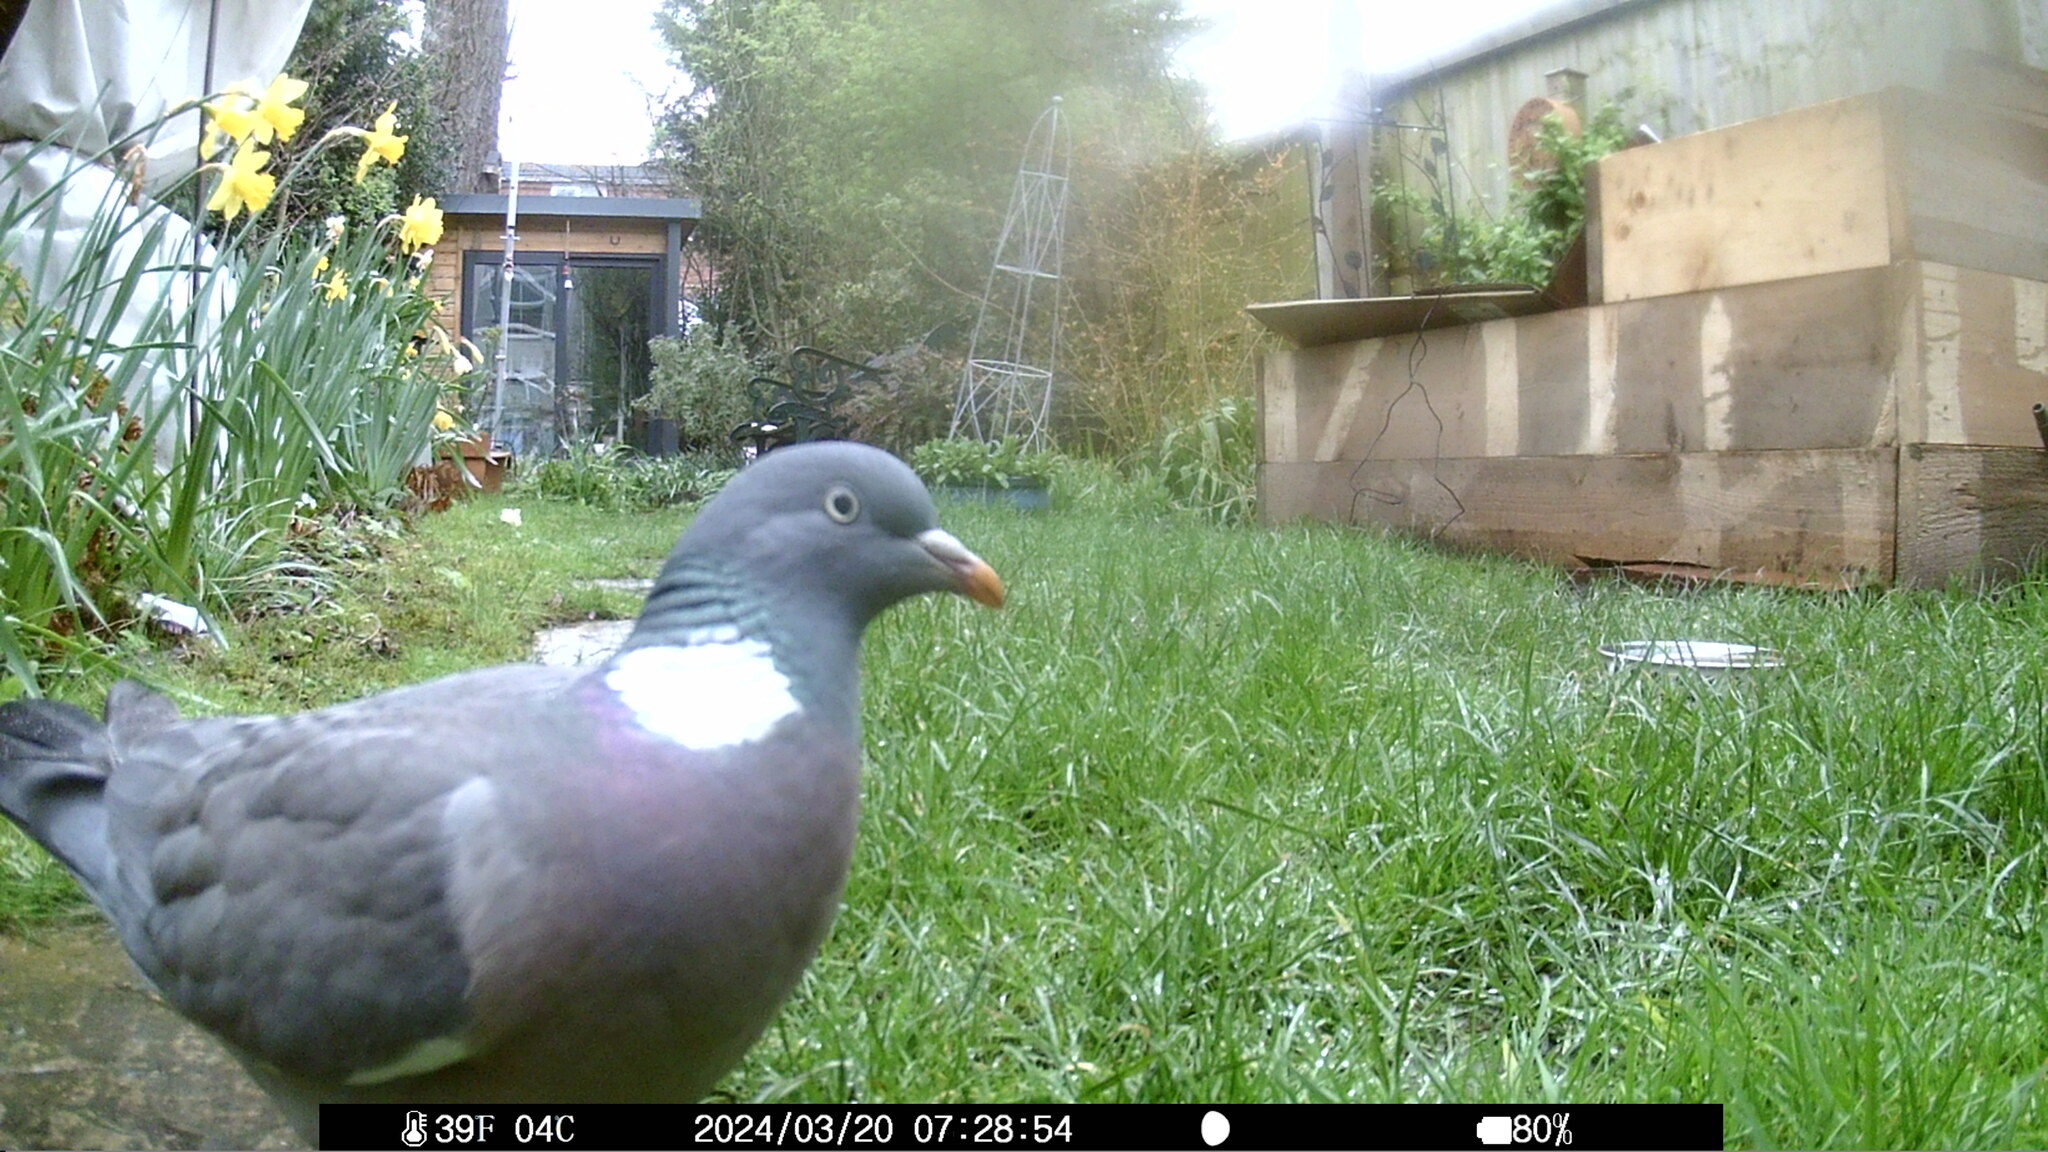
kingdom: Animalia
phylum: Chordata
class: Aves
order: Columbiformes
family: Columbidae
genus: Columba
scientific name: Columba palumbus
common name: Common wood pigeon
